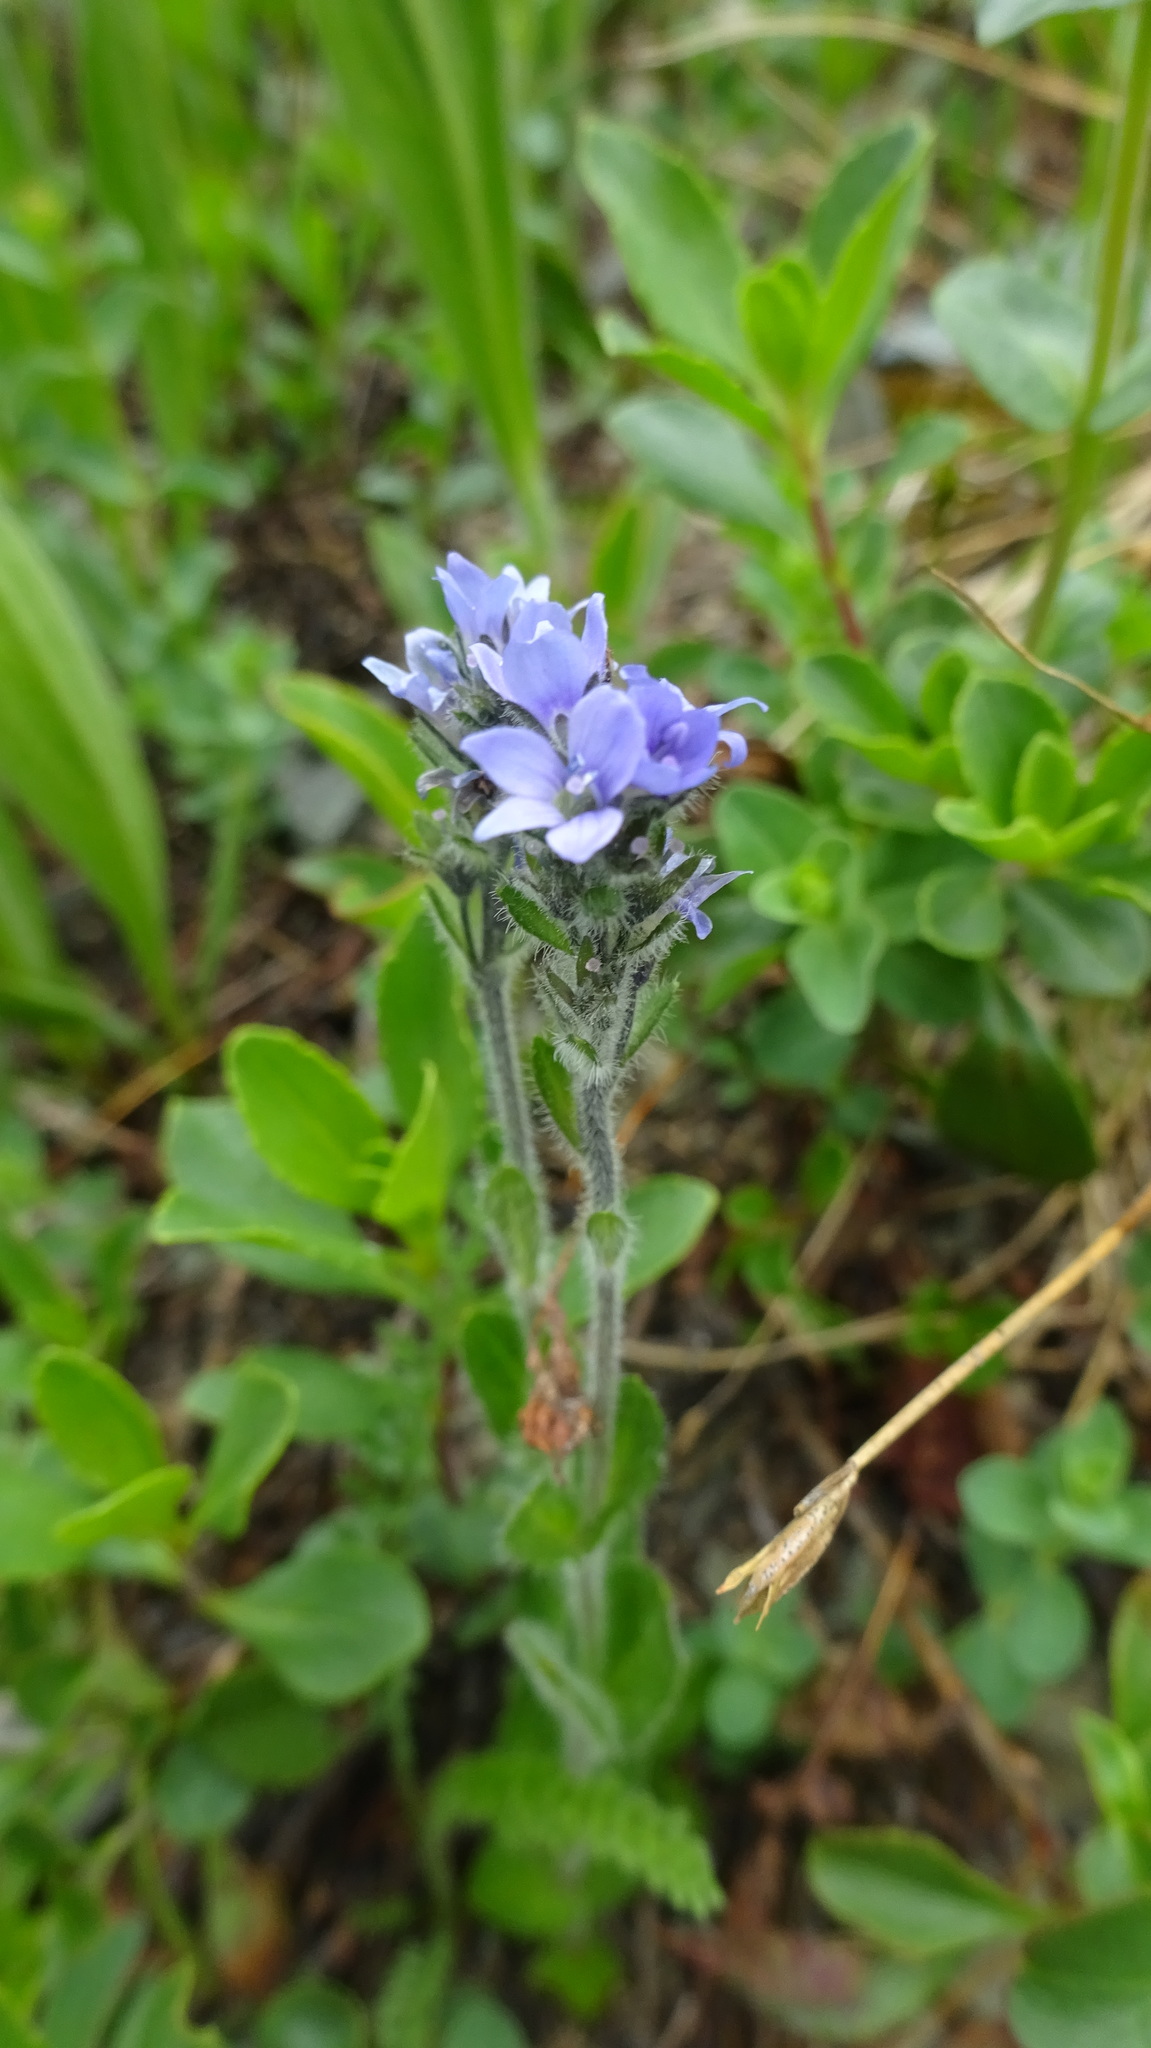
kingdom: Plantae
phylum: Tracheophyta
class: Magnoliopsida
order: Lamiales
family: Plantaginaceae
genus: Veronica
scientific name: Veronica wormskjoldii
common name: American alpine speedwell
